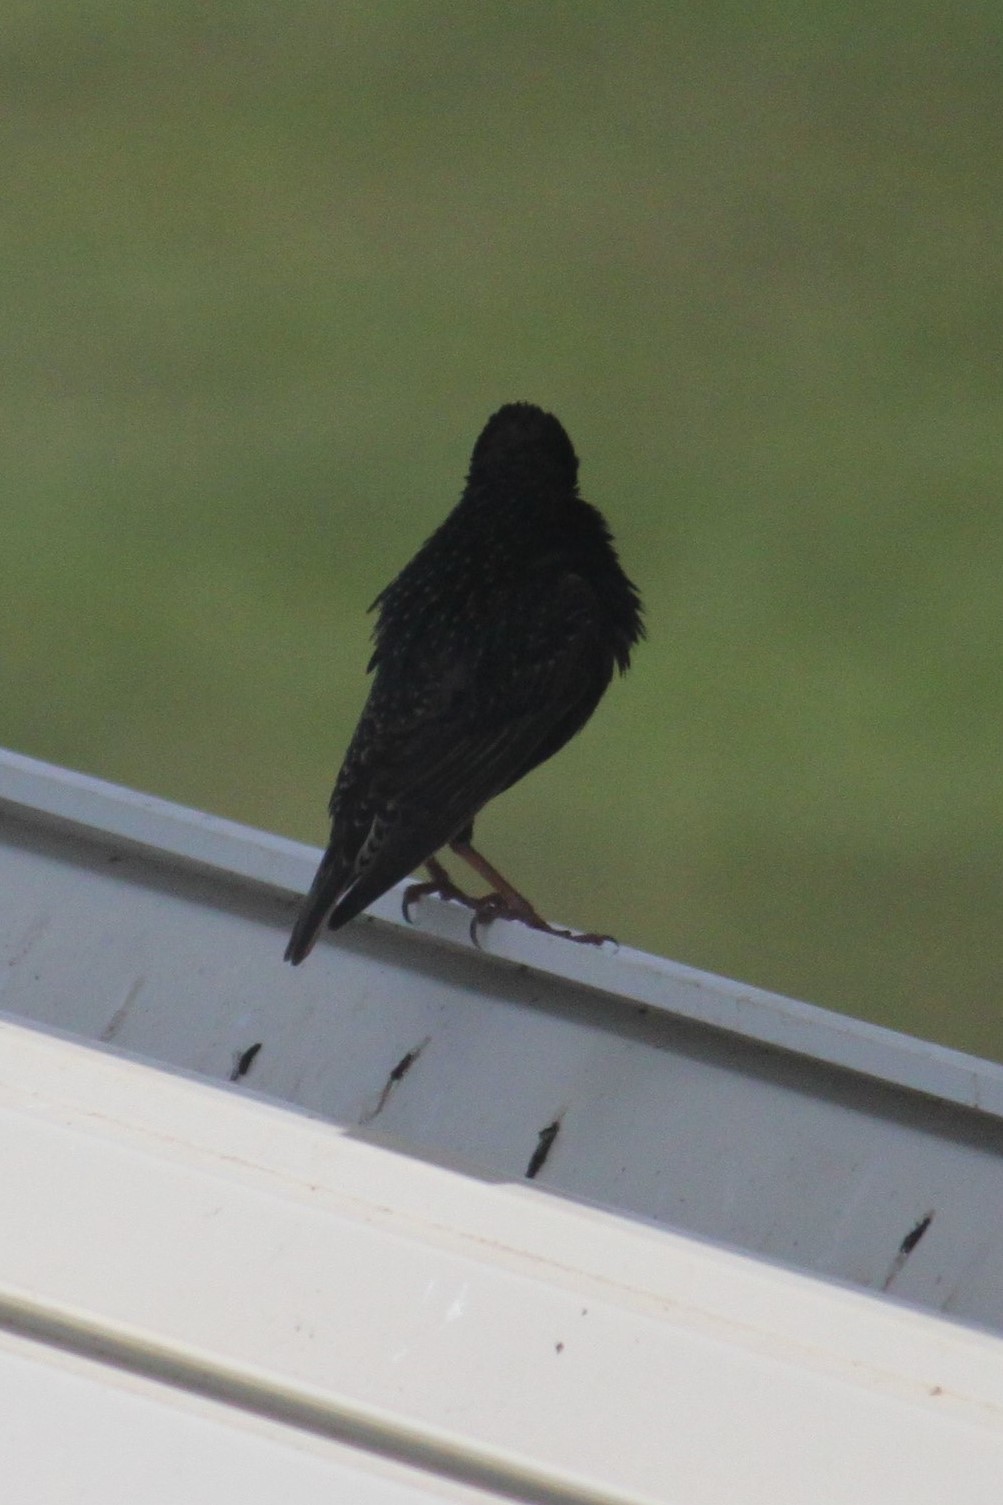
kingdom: Animalia
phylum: Chordata
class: Aves
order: Passeriformes
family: Sturnidae
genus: Sturnus
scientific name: Sturnus vulgaris
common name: Common starling
